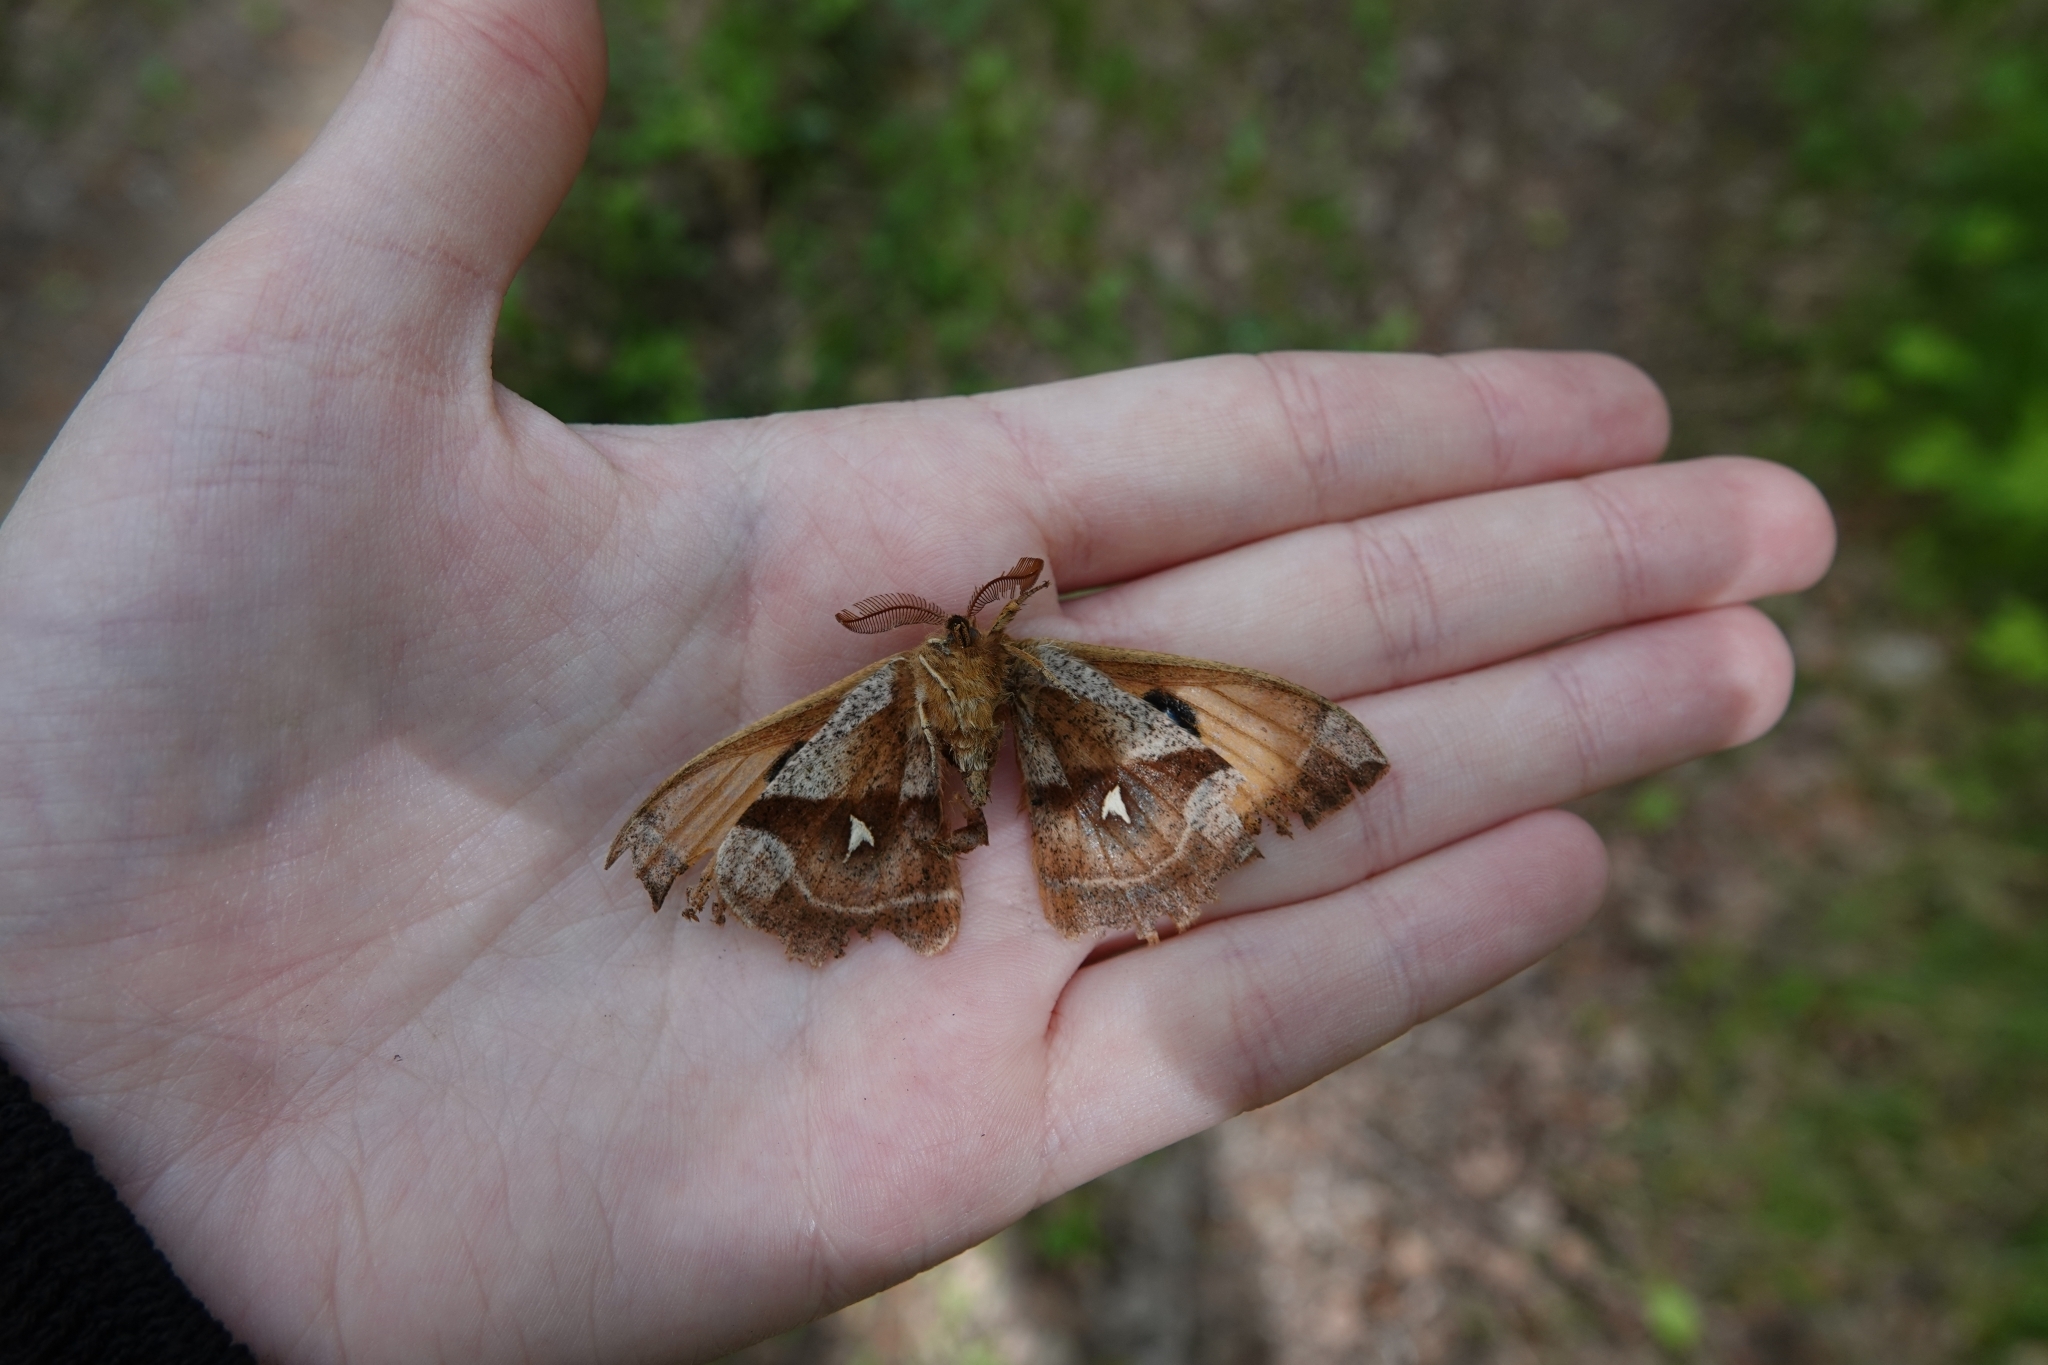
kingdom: Animalia
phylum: Arthropoda
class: Insecta
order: Lepidoptera
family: Saturniidae
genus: Aglia
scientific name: Aglia tau
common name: Tau emperor
